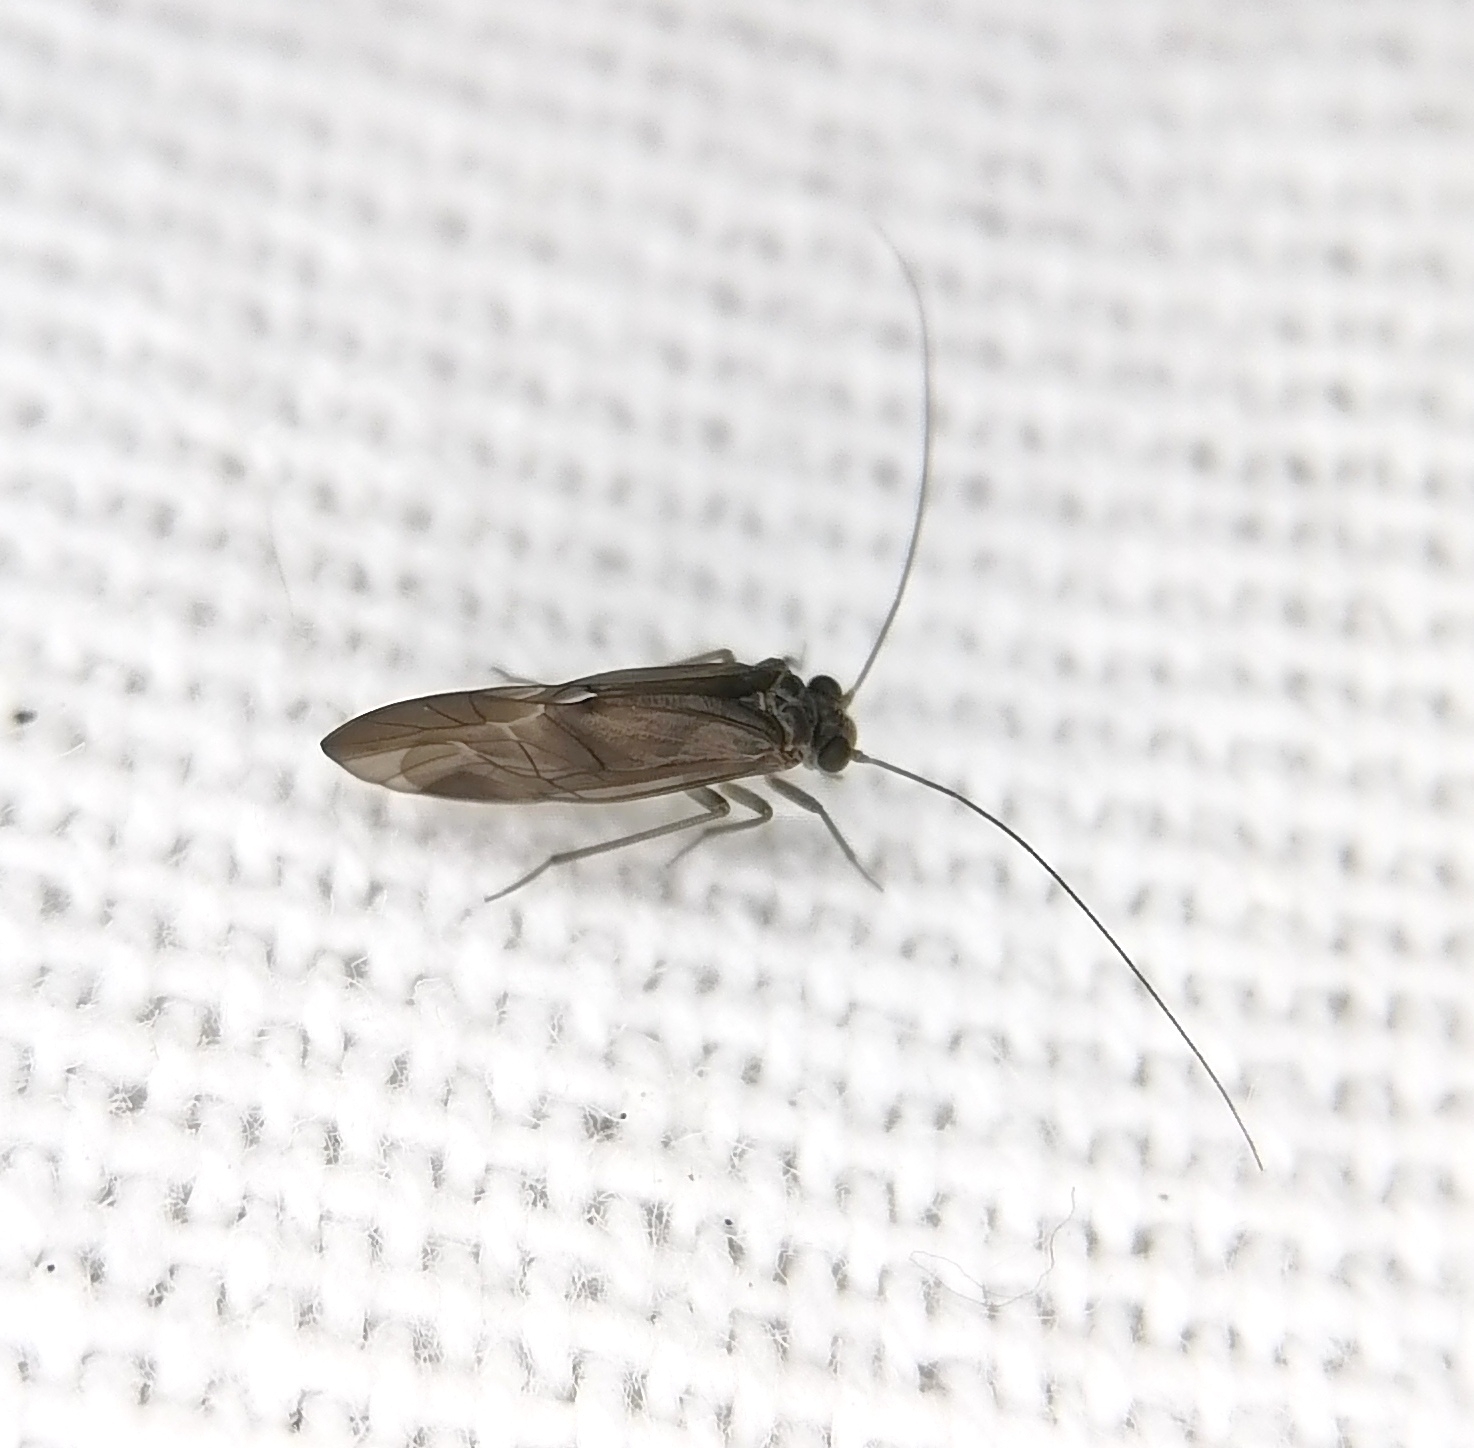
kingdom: Animalia
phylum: Arthropoda
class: Insecta
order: Psocodea
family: Psocidae
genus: Metylophorus
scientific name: Metylophorus nebulosus
